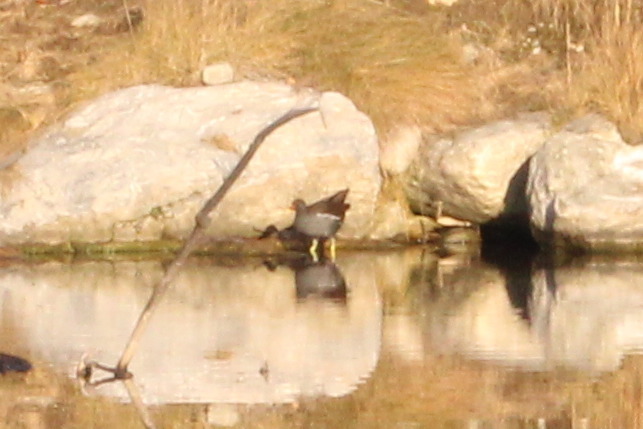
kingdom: Animalia
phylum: Chordata
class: Aves
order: Gruiformes
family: Rallidae
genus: Gallinula
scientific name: Gallinula chloropus
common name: Common moorhen
